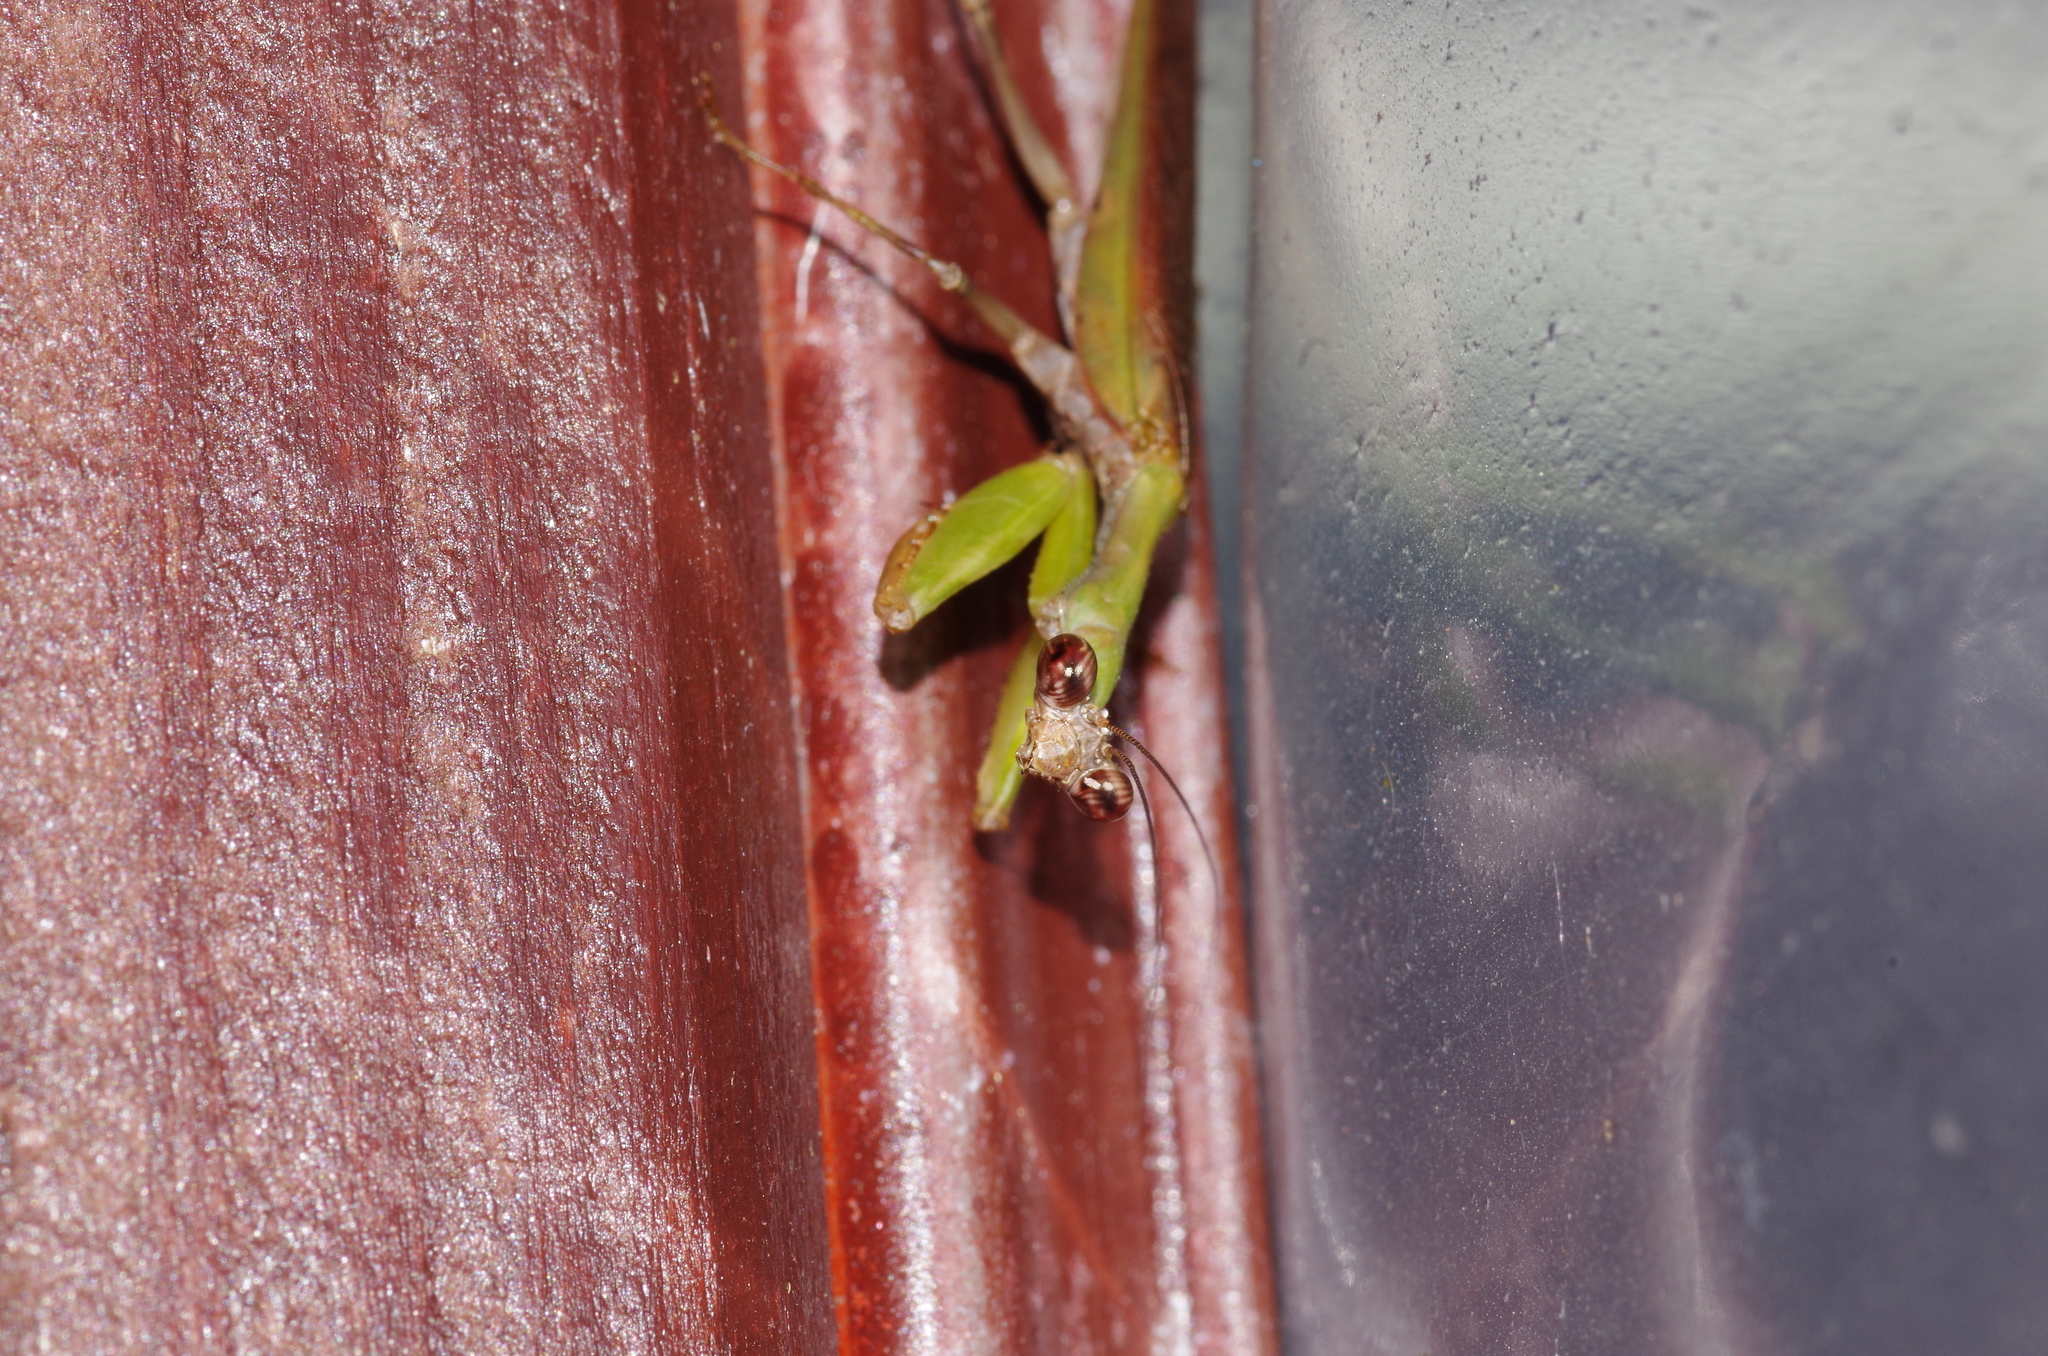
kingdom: Animalia
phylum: Arthropoda
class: Insecta
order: Mantodea
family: Hymenopodidae
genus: Acromantis
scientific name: Acromantis satsumensis
